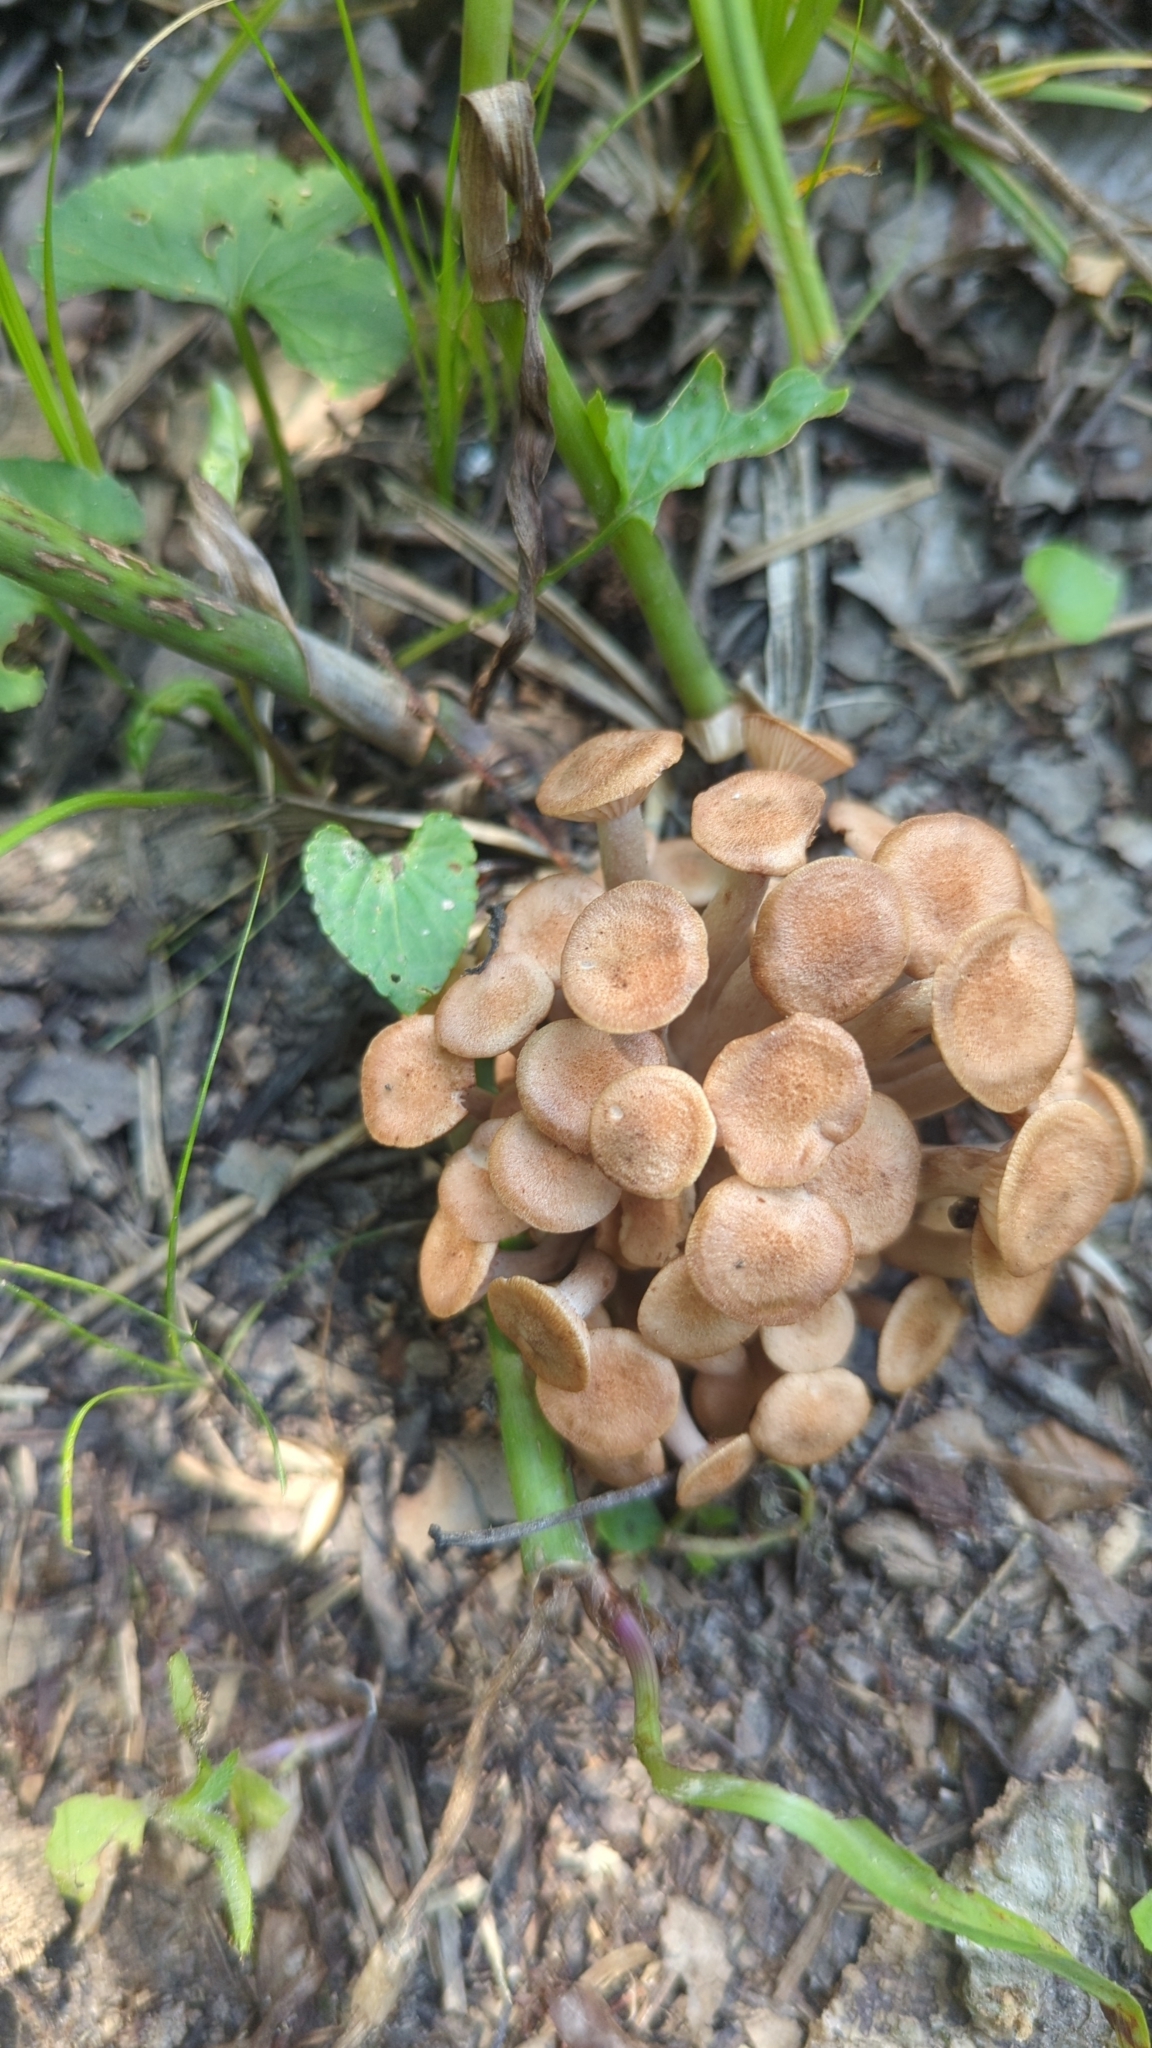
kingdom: Fungi
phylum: Basidiomycota
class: Agaricomycetes
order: Agaricales
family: Physalacriaceae
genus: Desarmillaria
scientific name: Desarmillaria caespitosa
